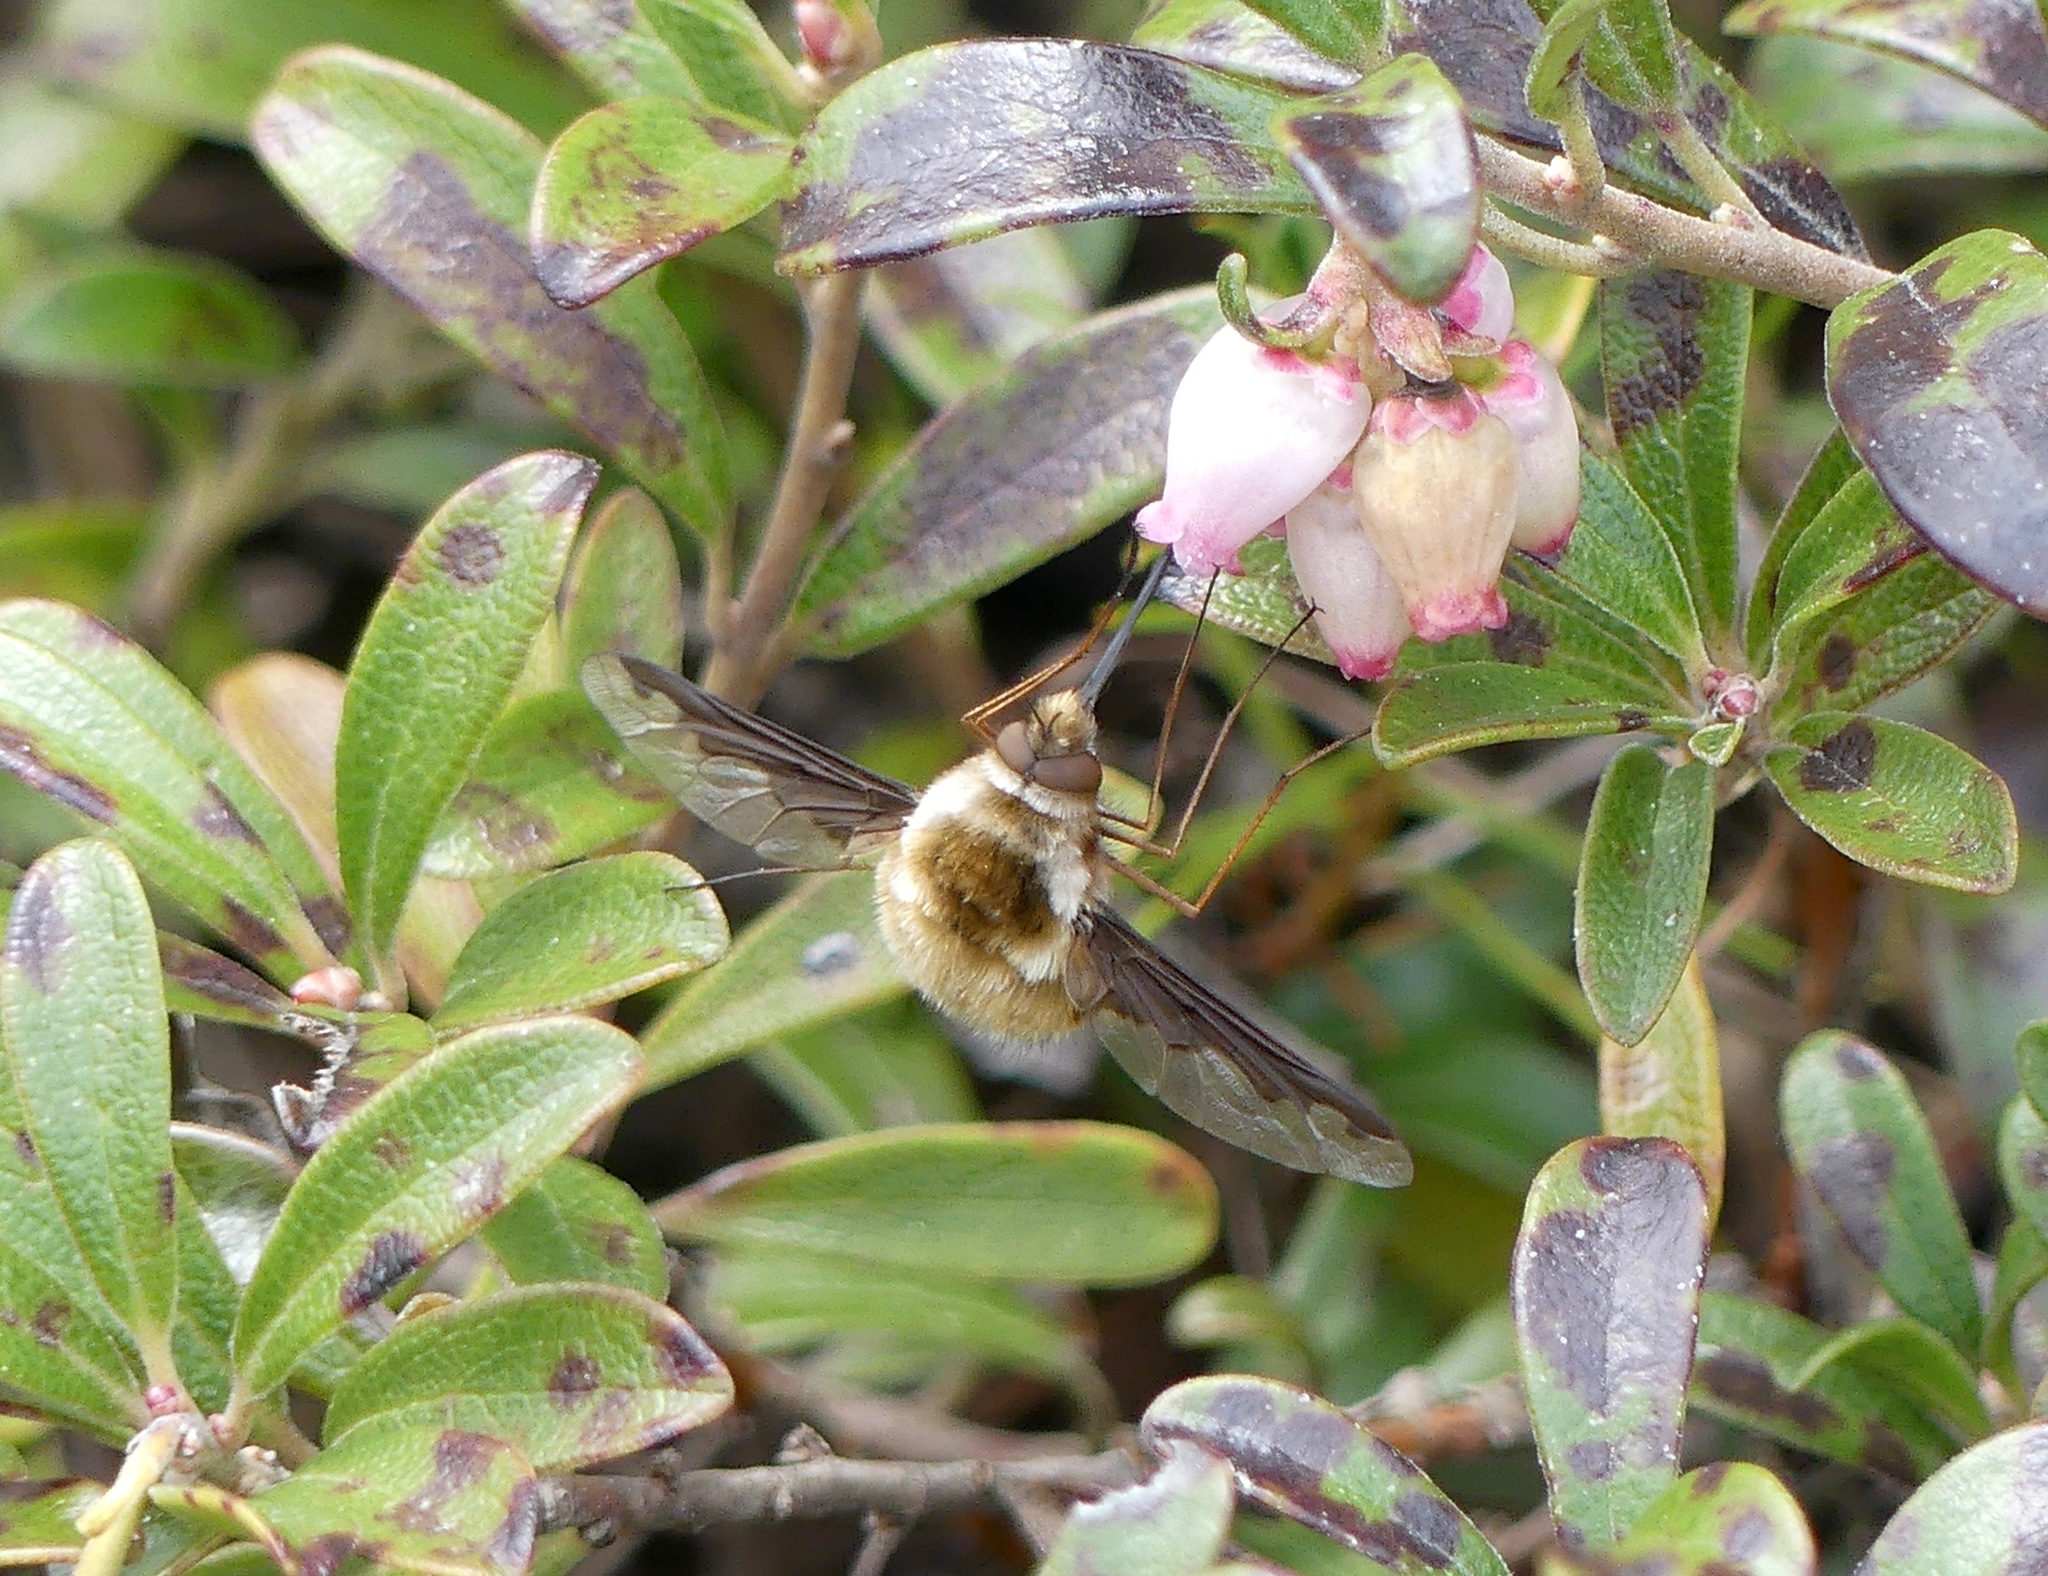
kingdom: Animalia
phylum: Arthropoda
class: Insecta
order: Diptera
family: Bombyliidae
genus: Bombylius
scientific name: Bombylius major
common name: Bee fly
